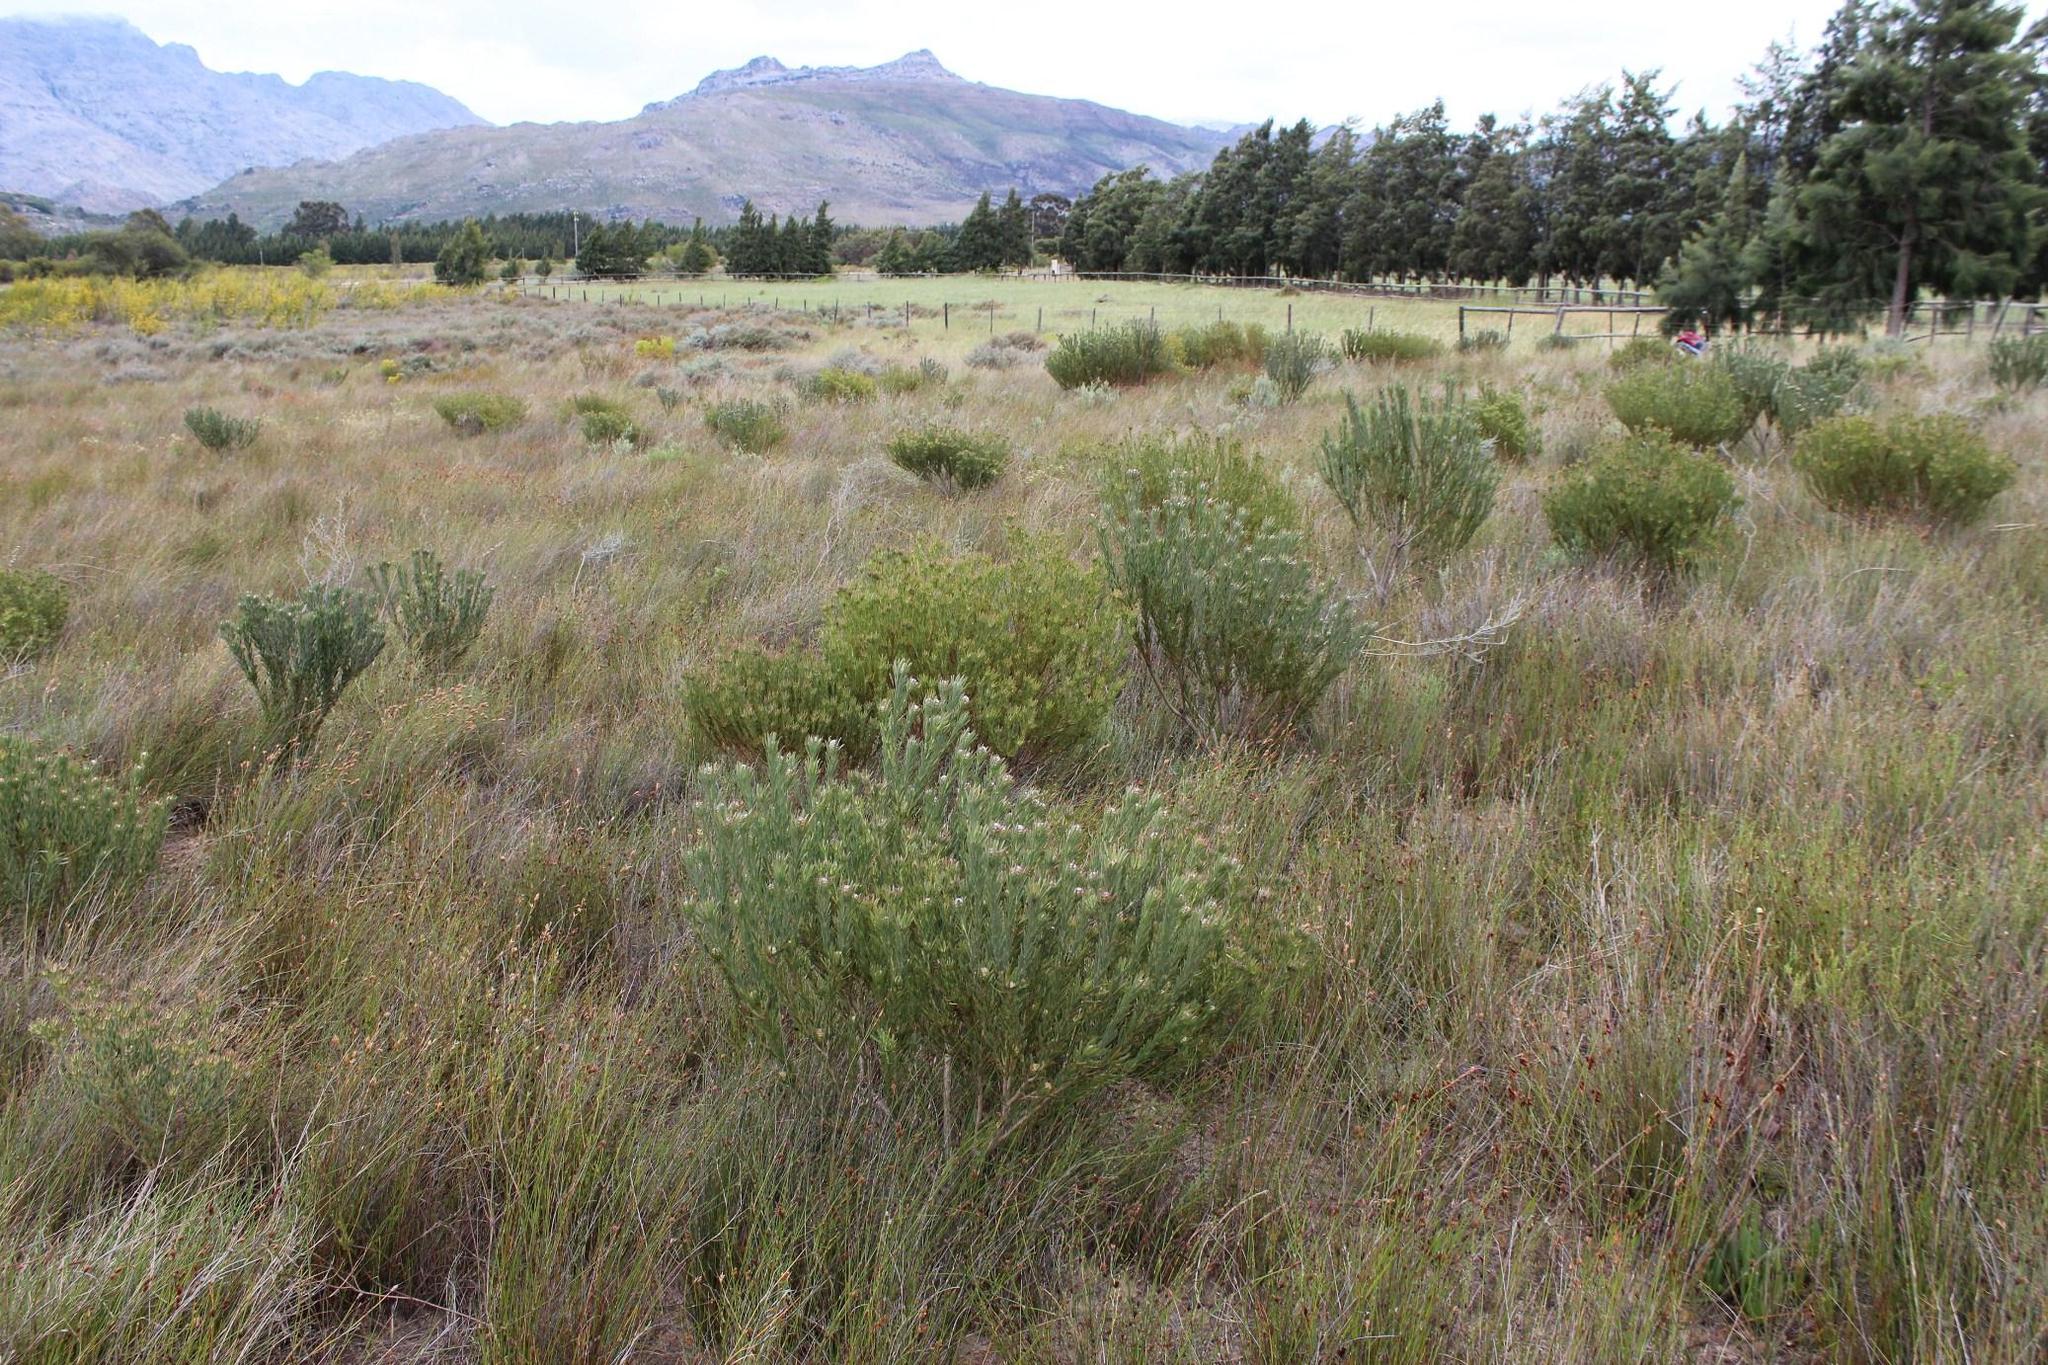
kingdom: Plantae
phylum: Tracheophyta
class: Magnoliopsida
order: Proteales
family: Proteaceae
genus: Leucadendron
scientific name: Leucadendron lanigerum
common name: Shale conebush
